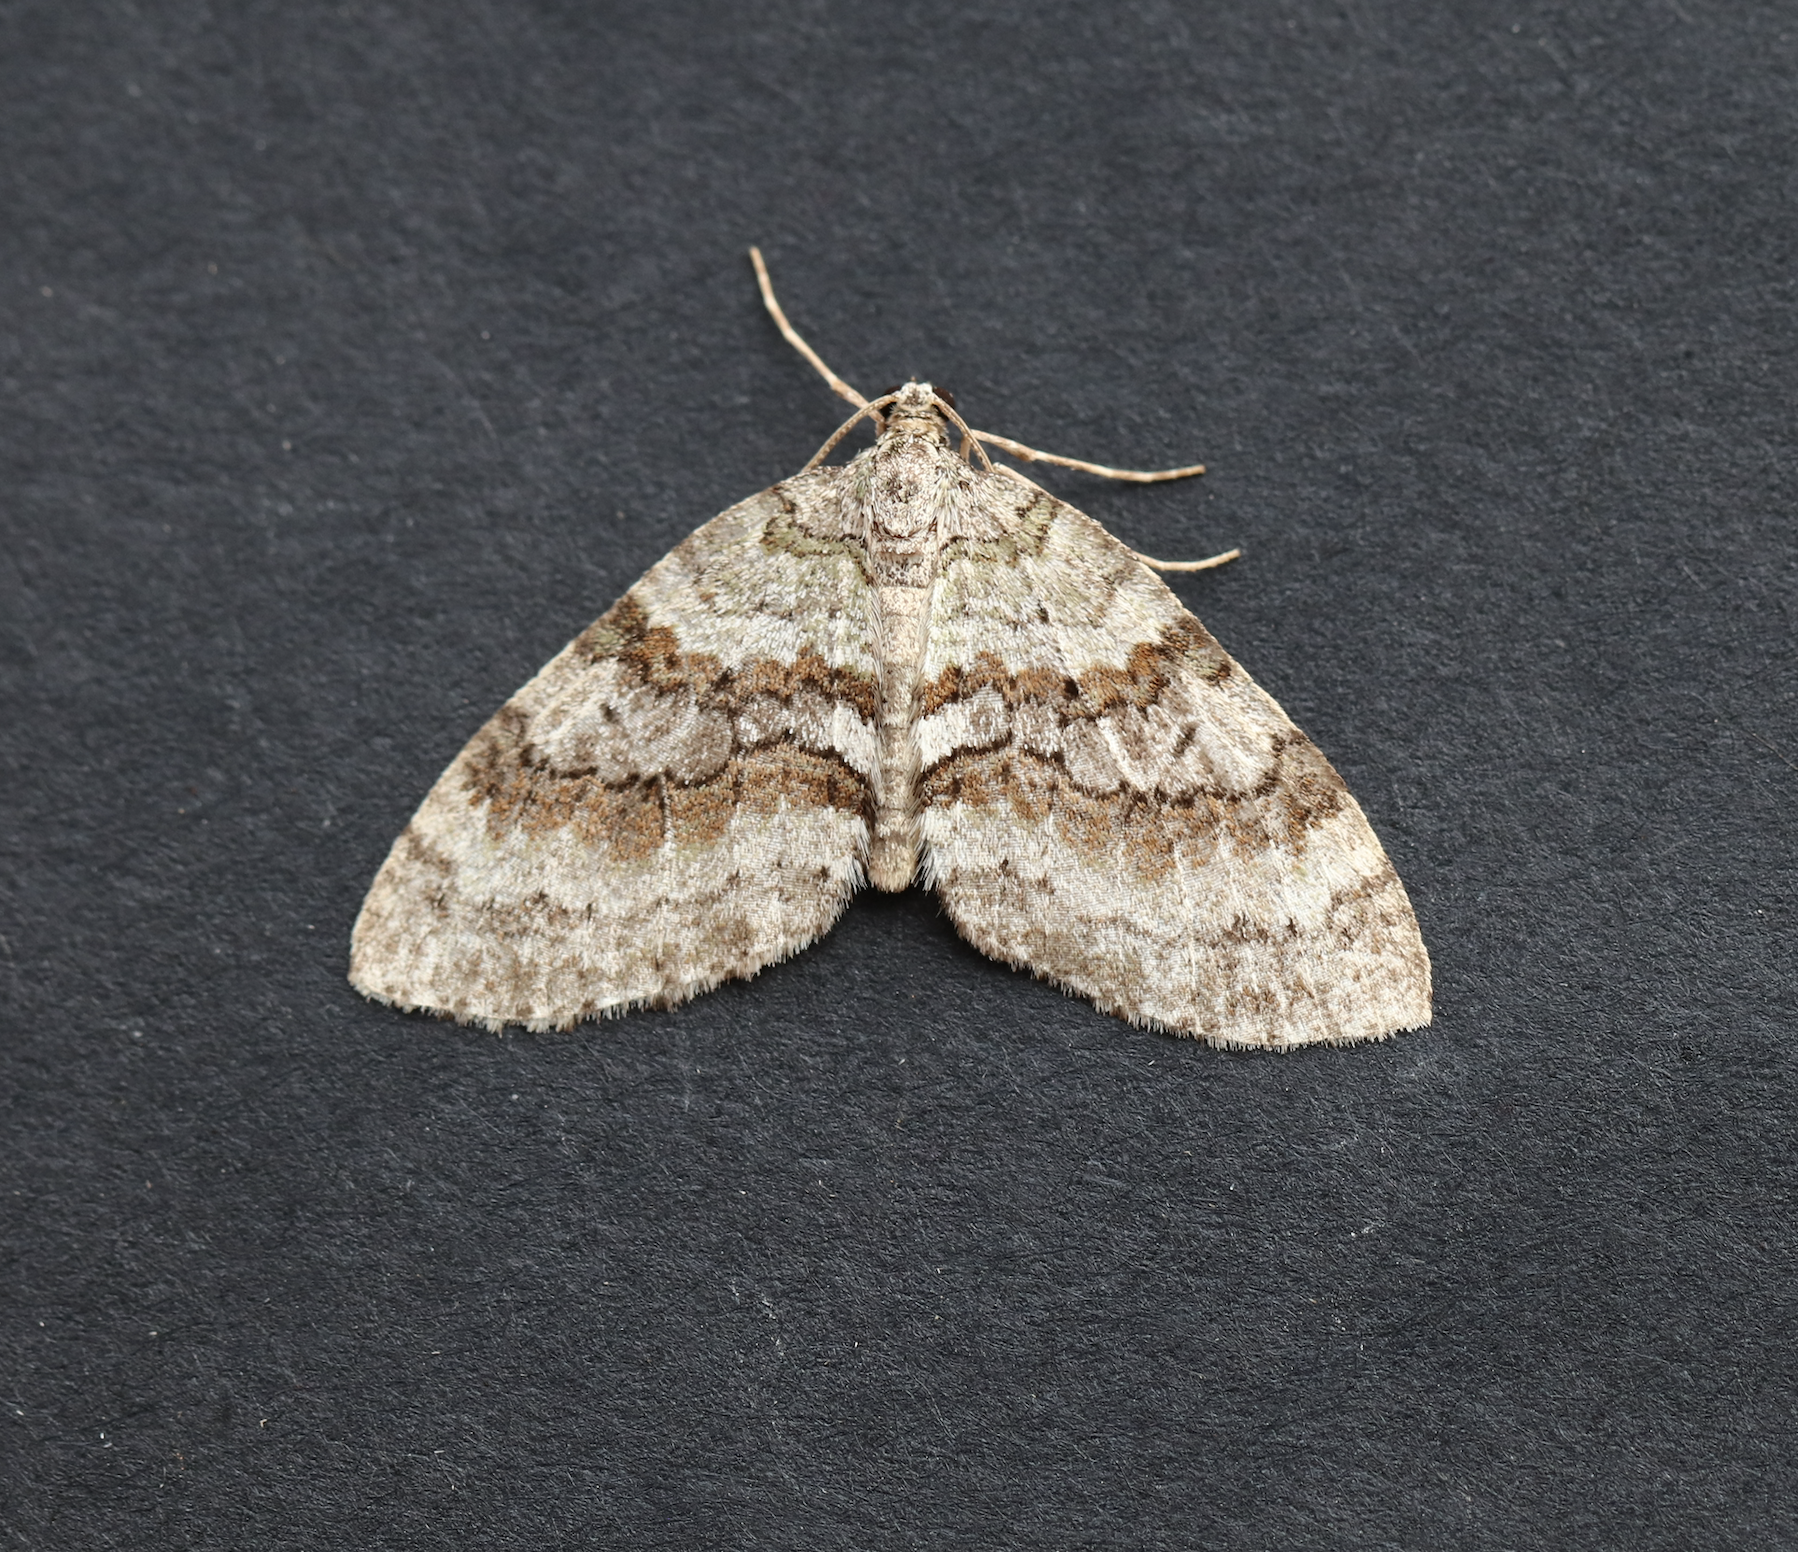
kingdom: Animalia
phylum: Arthropoda
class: Insecta
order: Lepidoptera
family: Geometridae
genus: Nothocasis
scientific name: Nothocasis sertata
